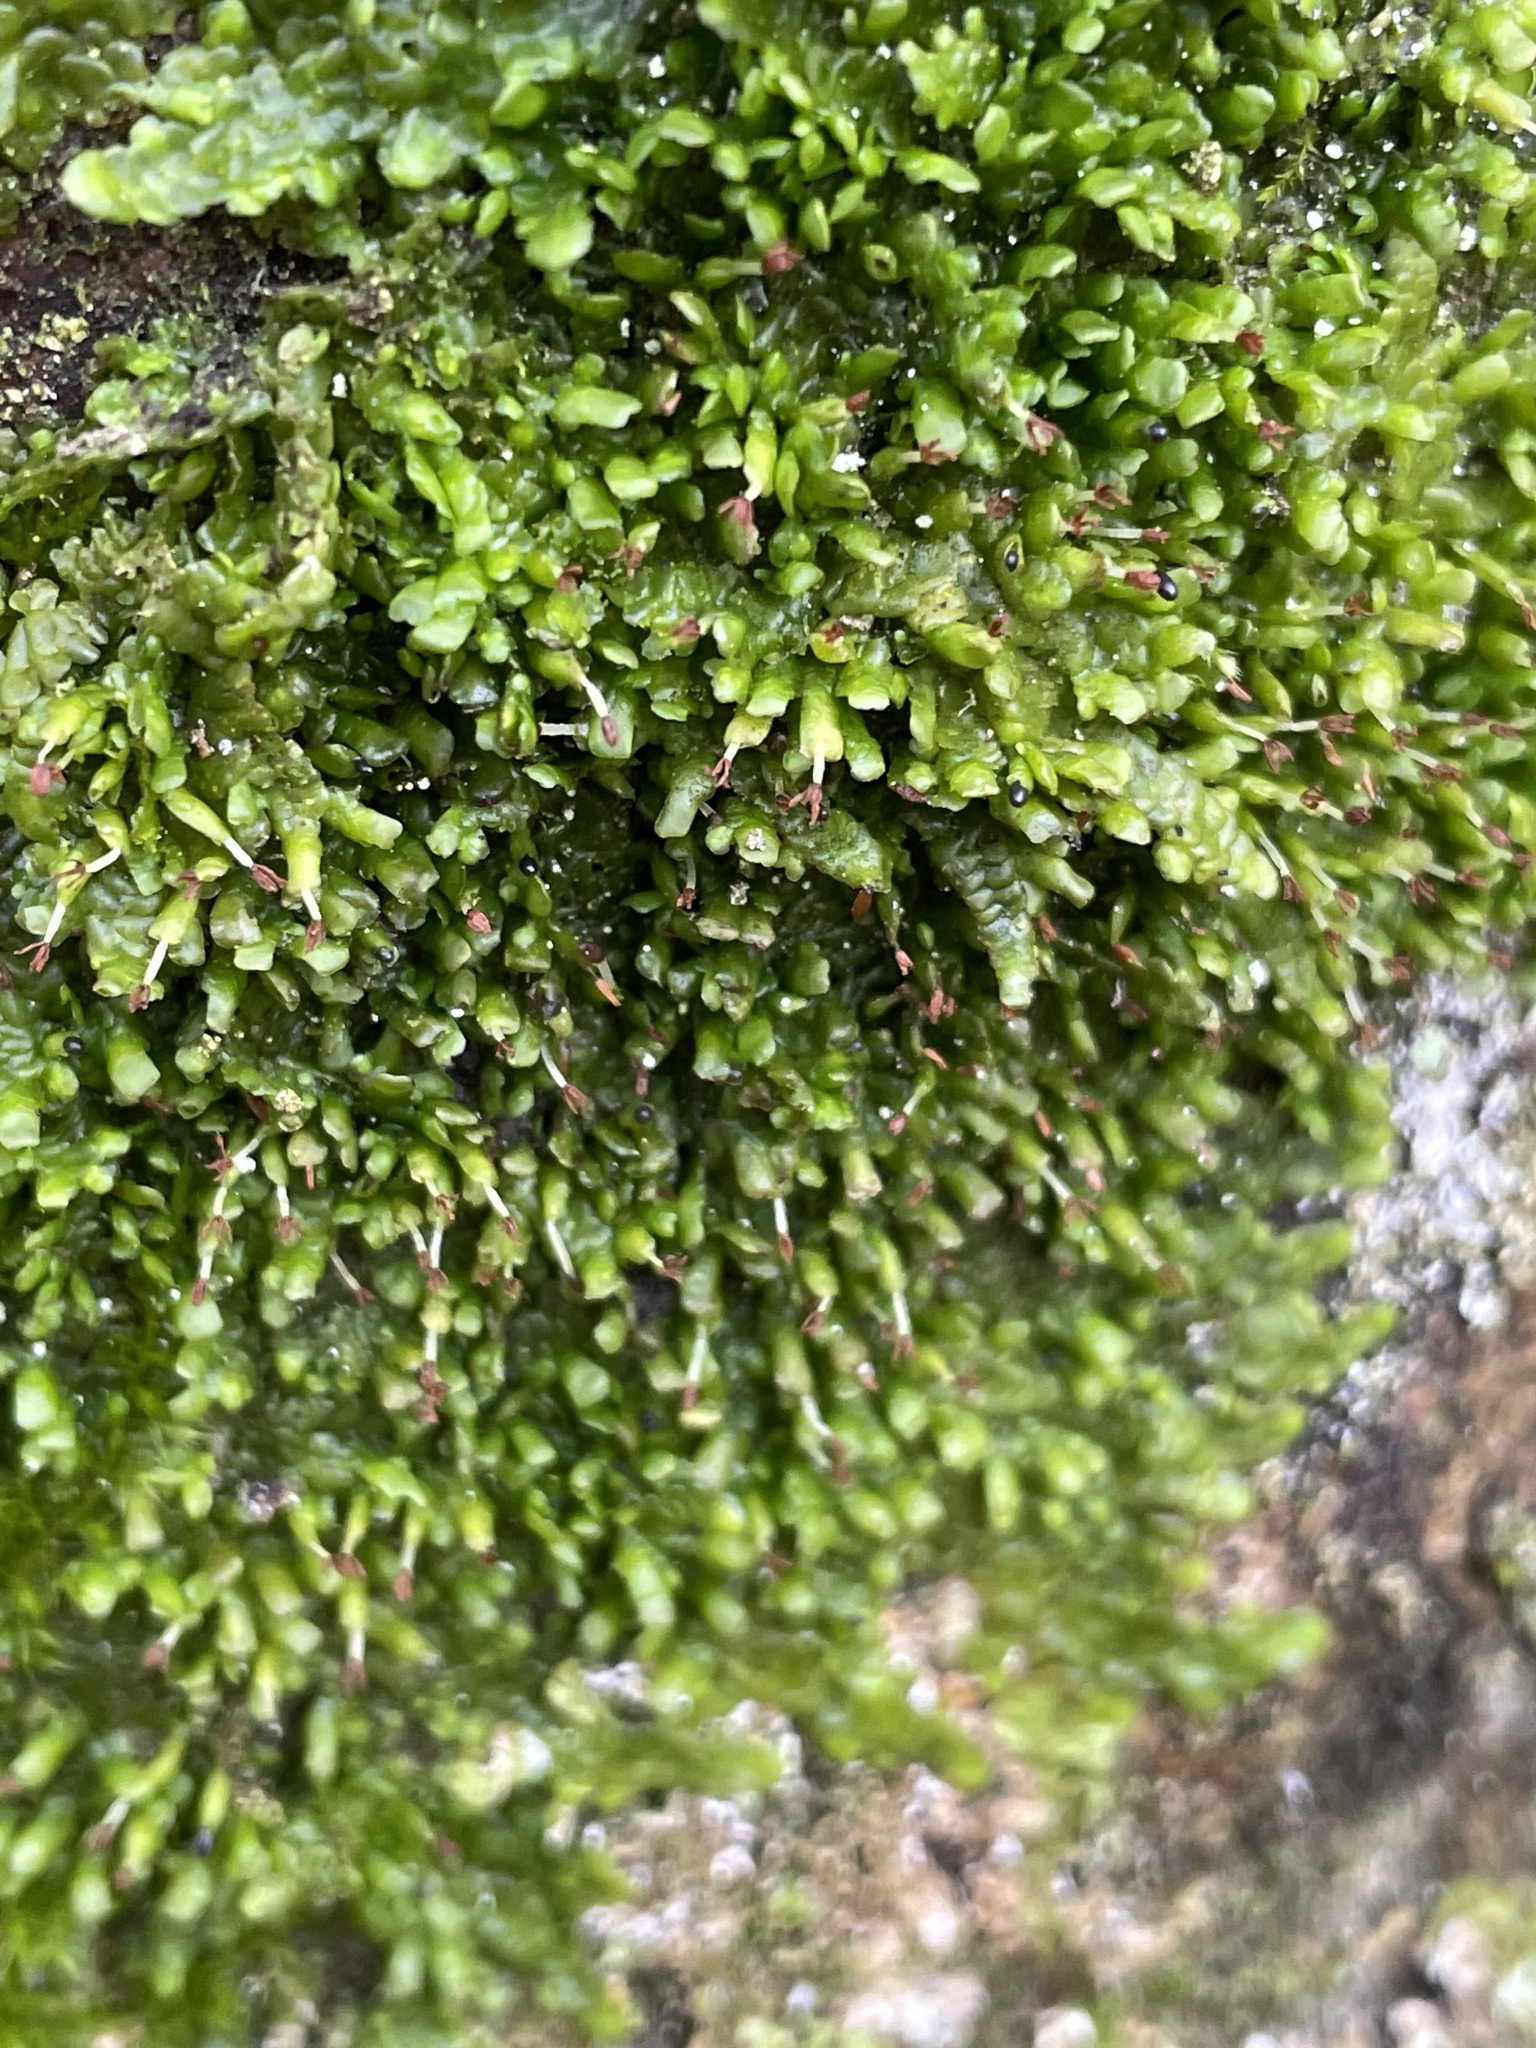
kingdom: Plantae
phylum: Marchantiophyta
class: Jungermanniopsida
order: Porellales
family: Radulaceae
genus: Radula
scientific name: Radula complanata
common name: Flat-leaved scalewort
